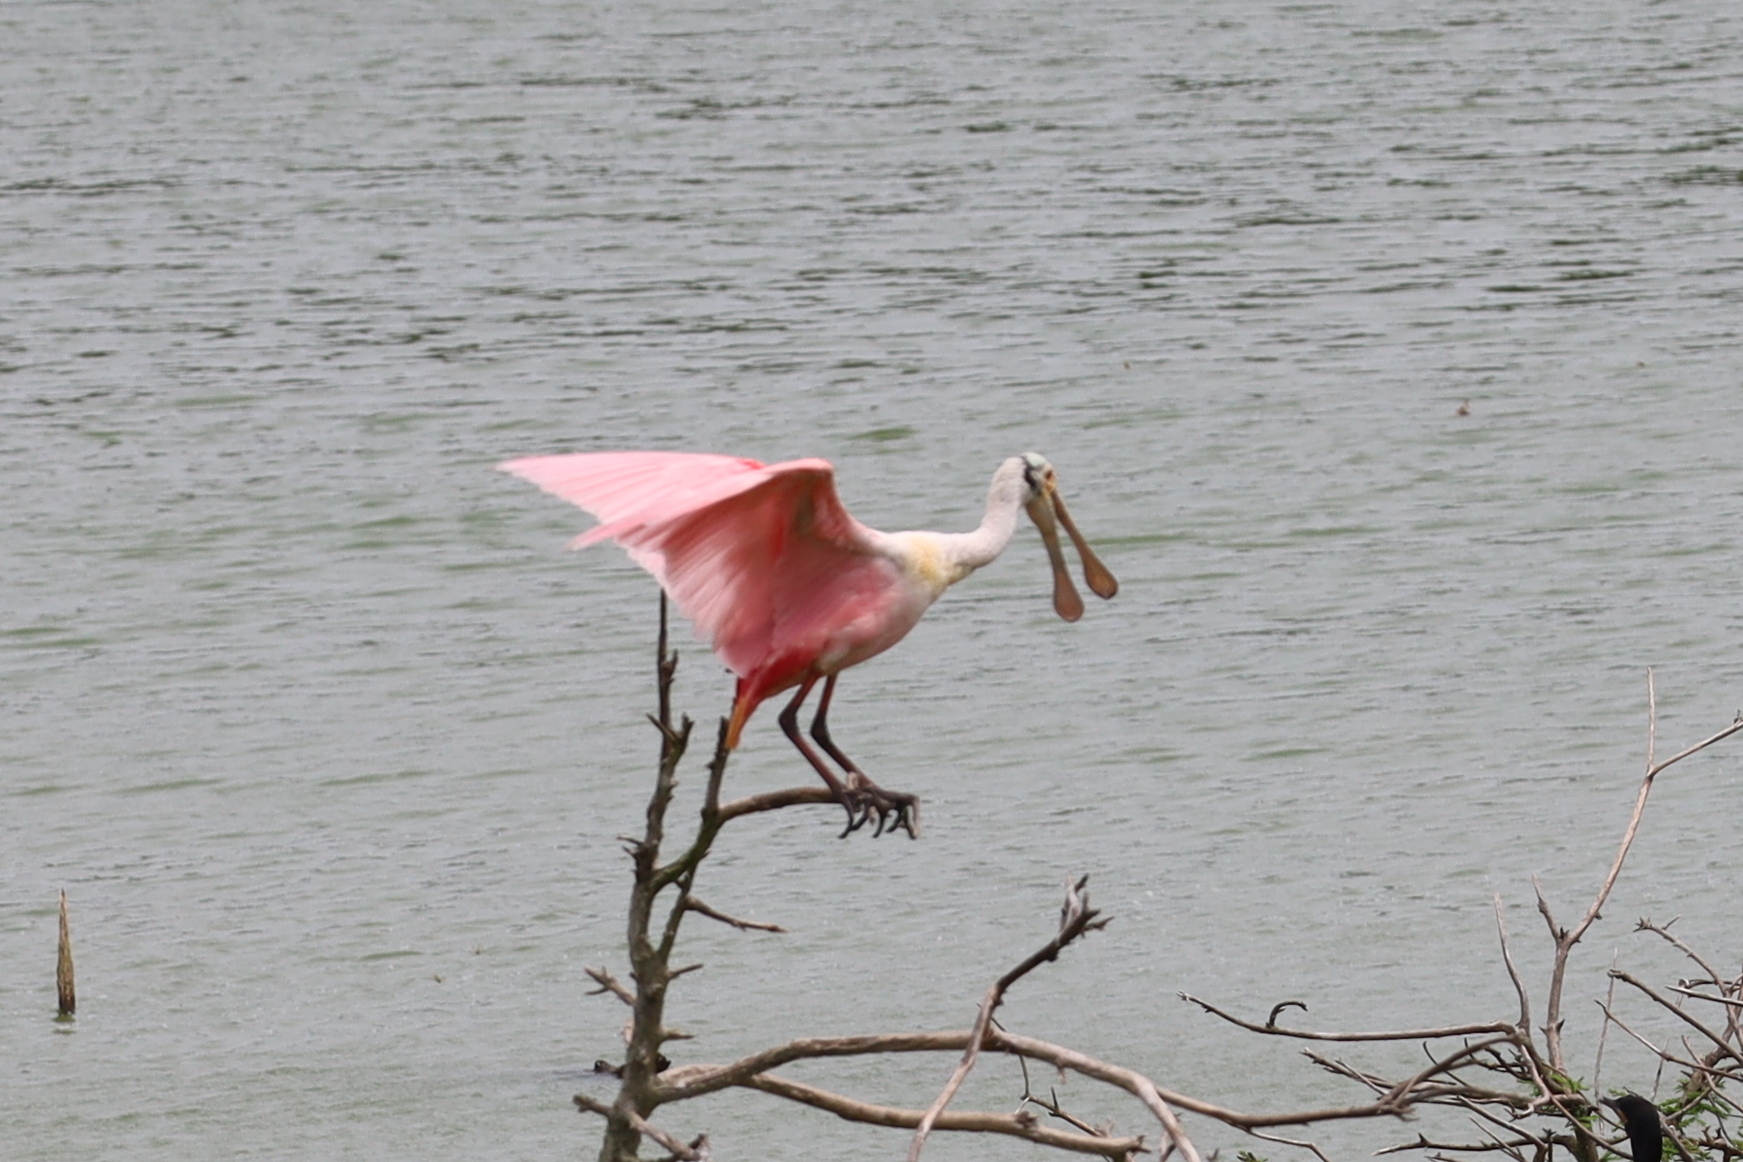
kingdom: Animalia
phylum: Chordata
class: Aves
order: Pelecaniformes
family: Threskiornithidae
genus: Platalea
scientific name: Platalea ajaja
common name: Roseate spoonbill
